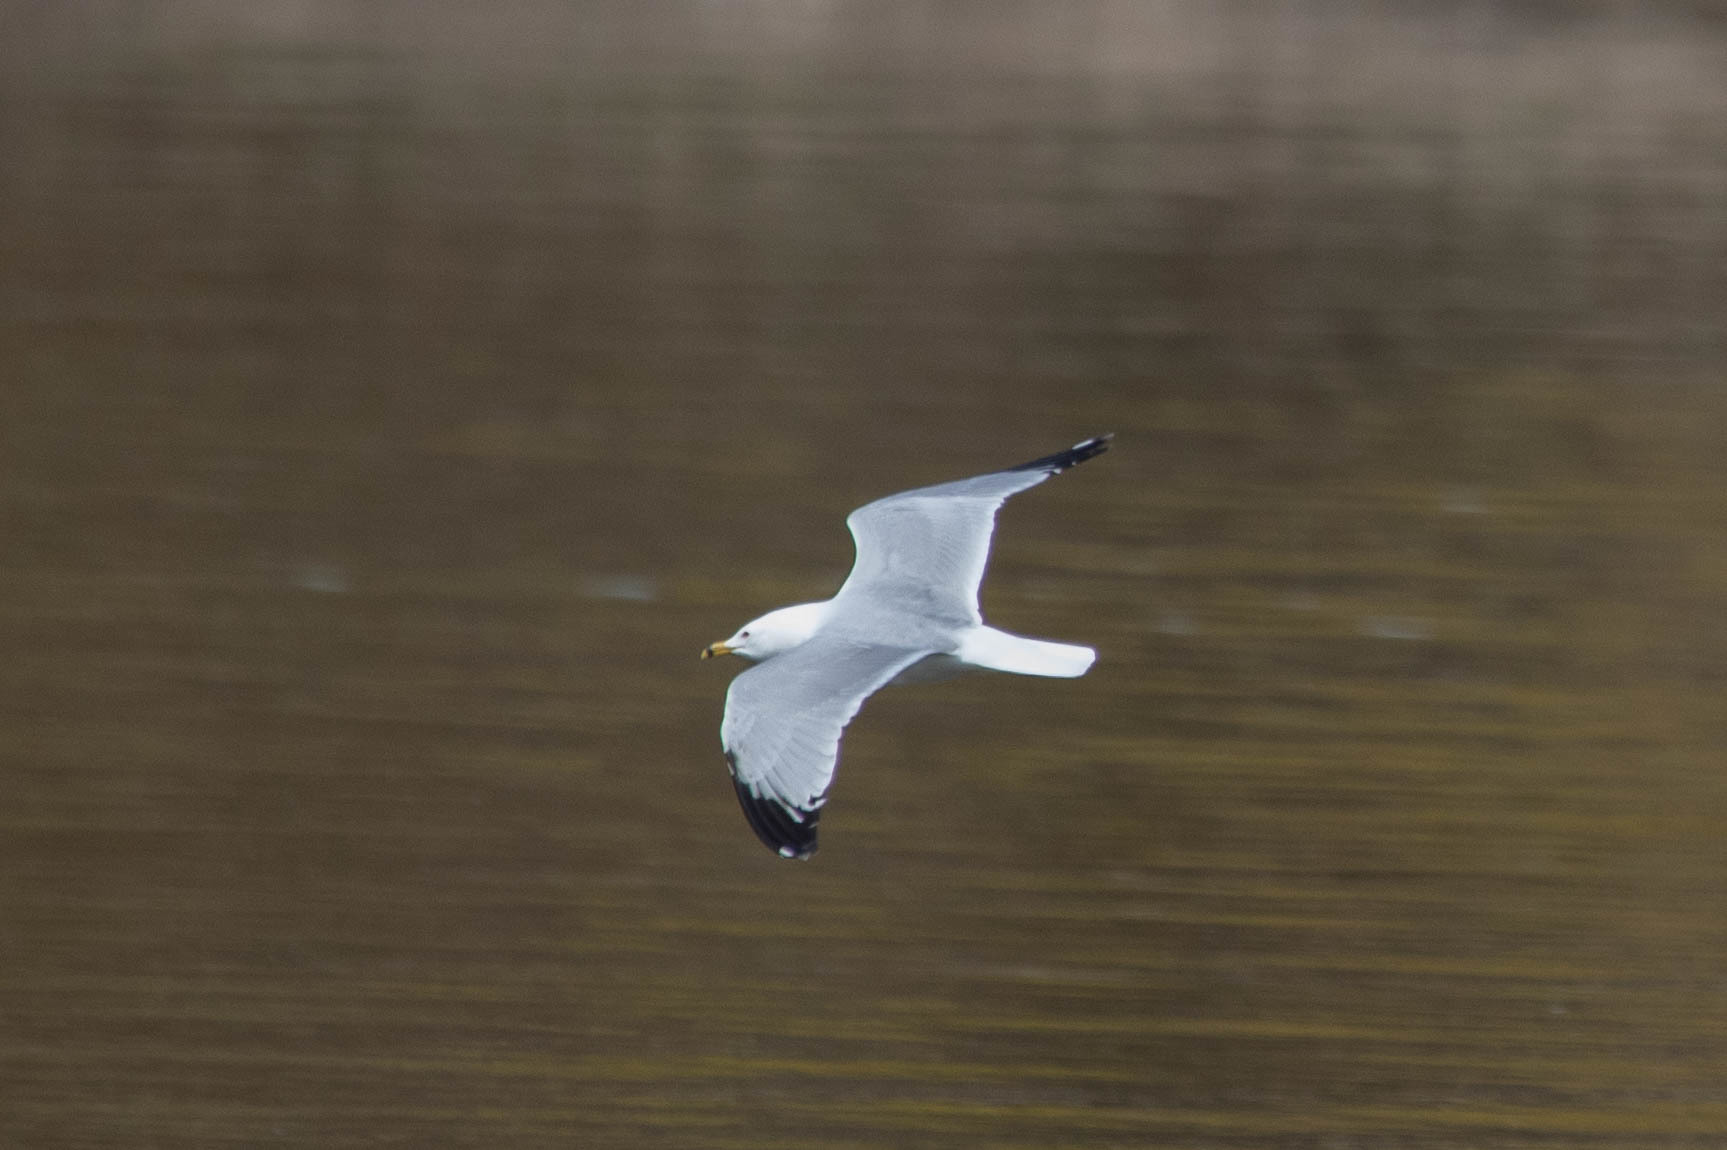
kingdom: Animalia
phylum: Chordata
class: Aves
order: Charadriiformes
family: Laridae
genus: Larus
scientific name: Larus delawarensis
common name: Ring-billed gull
